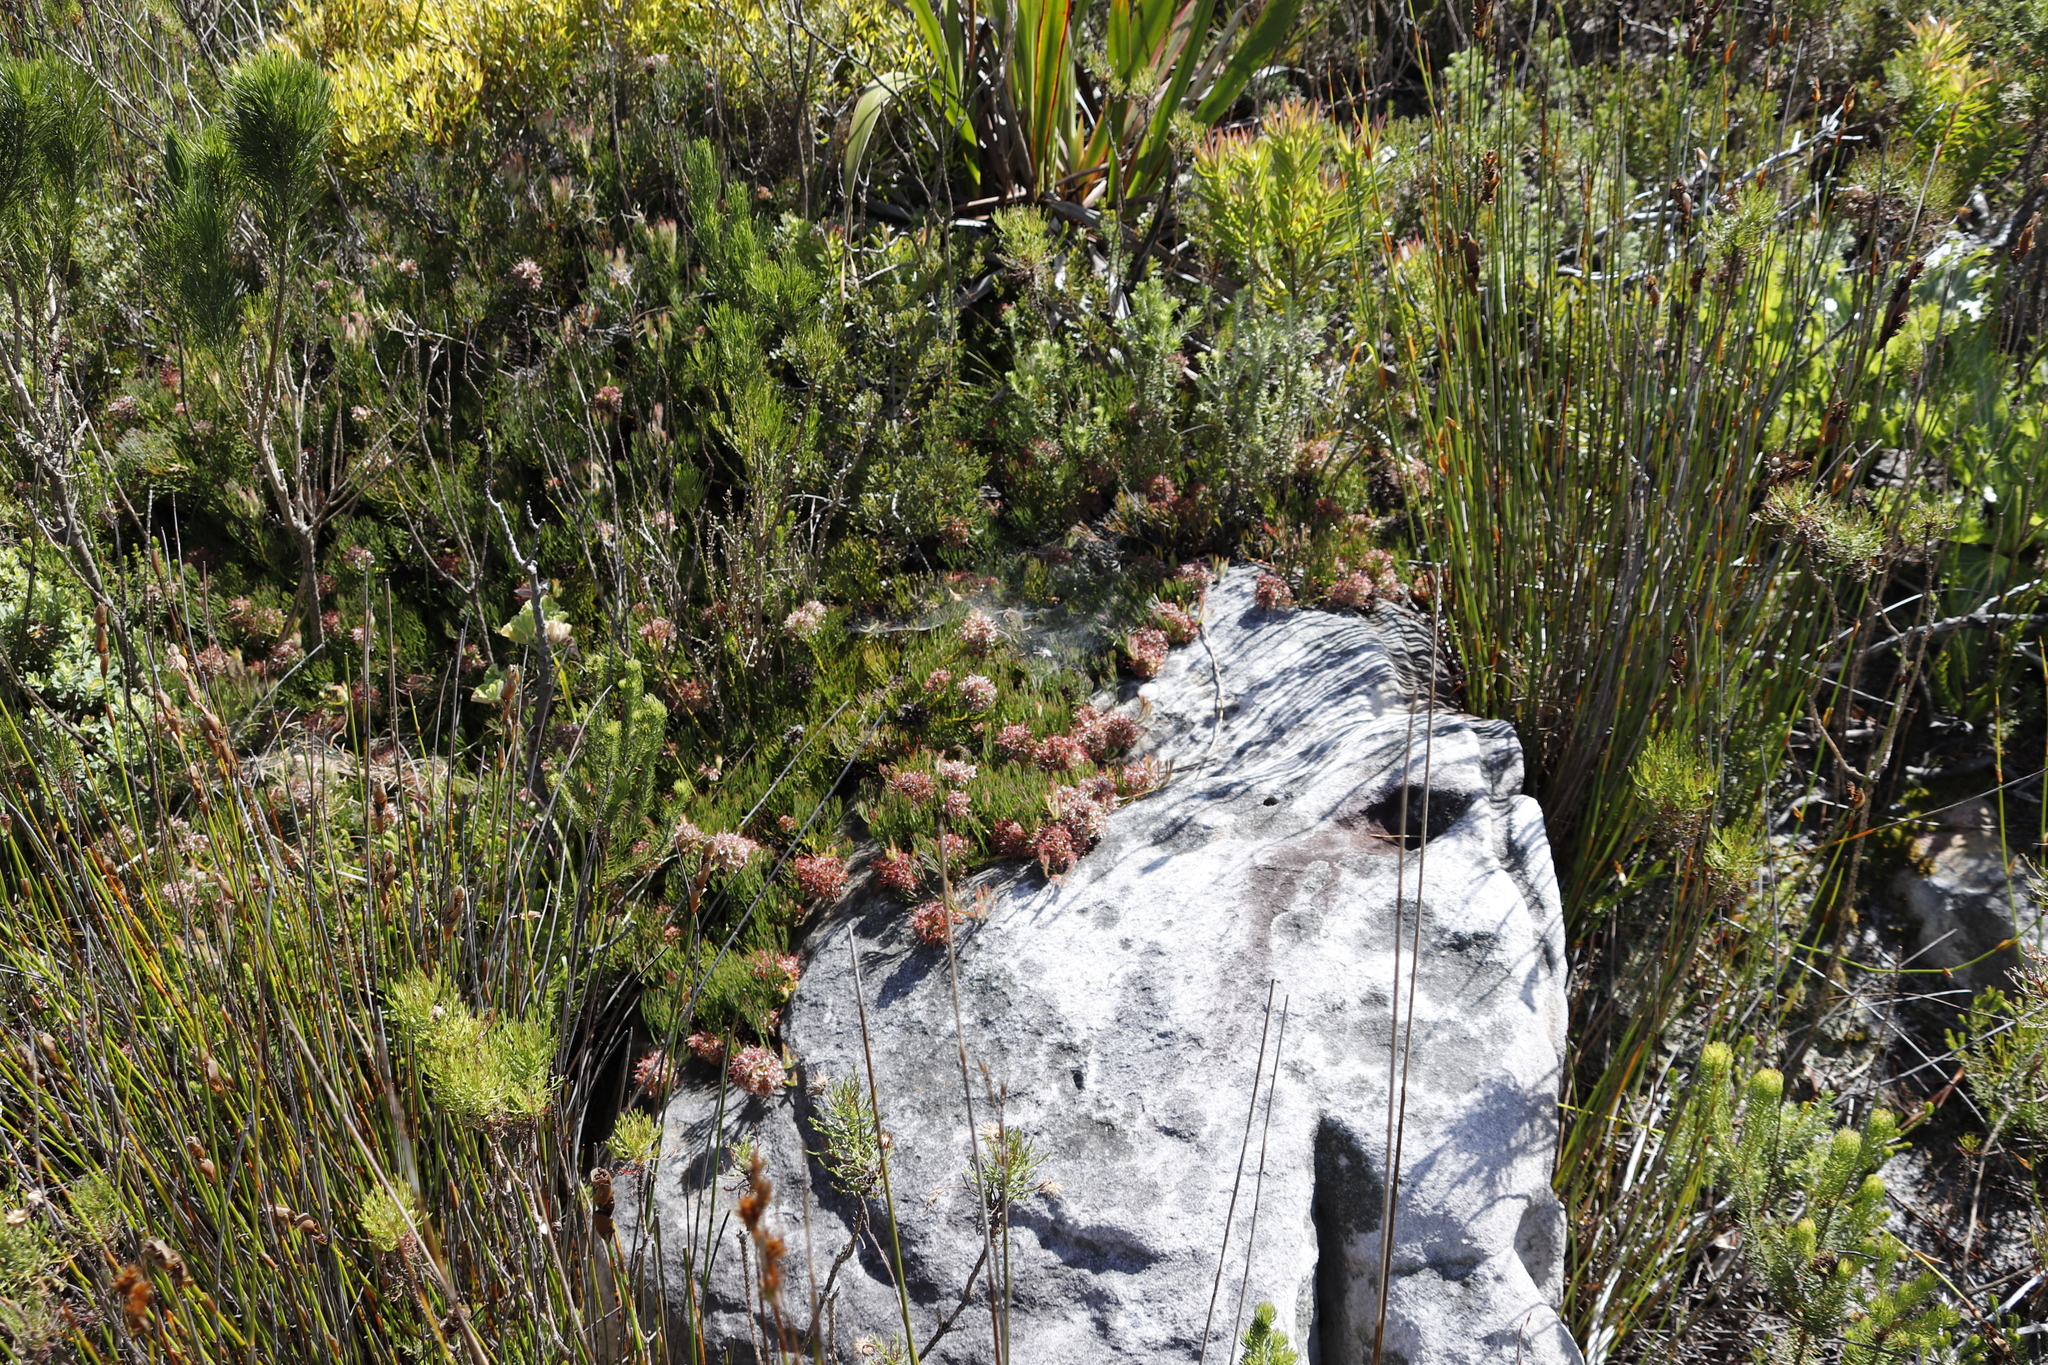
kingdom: Plantae
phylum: Tracheophyta
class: Magnoliopsida
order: Proteales
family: Proteaceae
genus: Serruria
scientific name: Serruria collina
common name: Lost spiderhead
